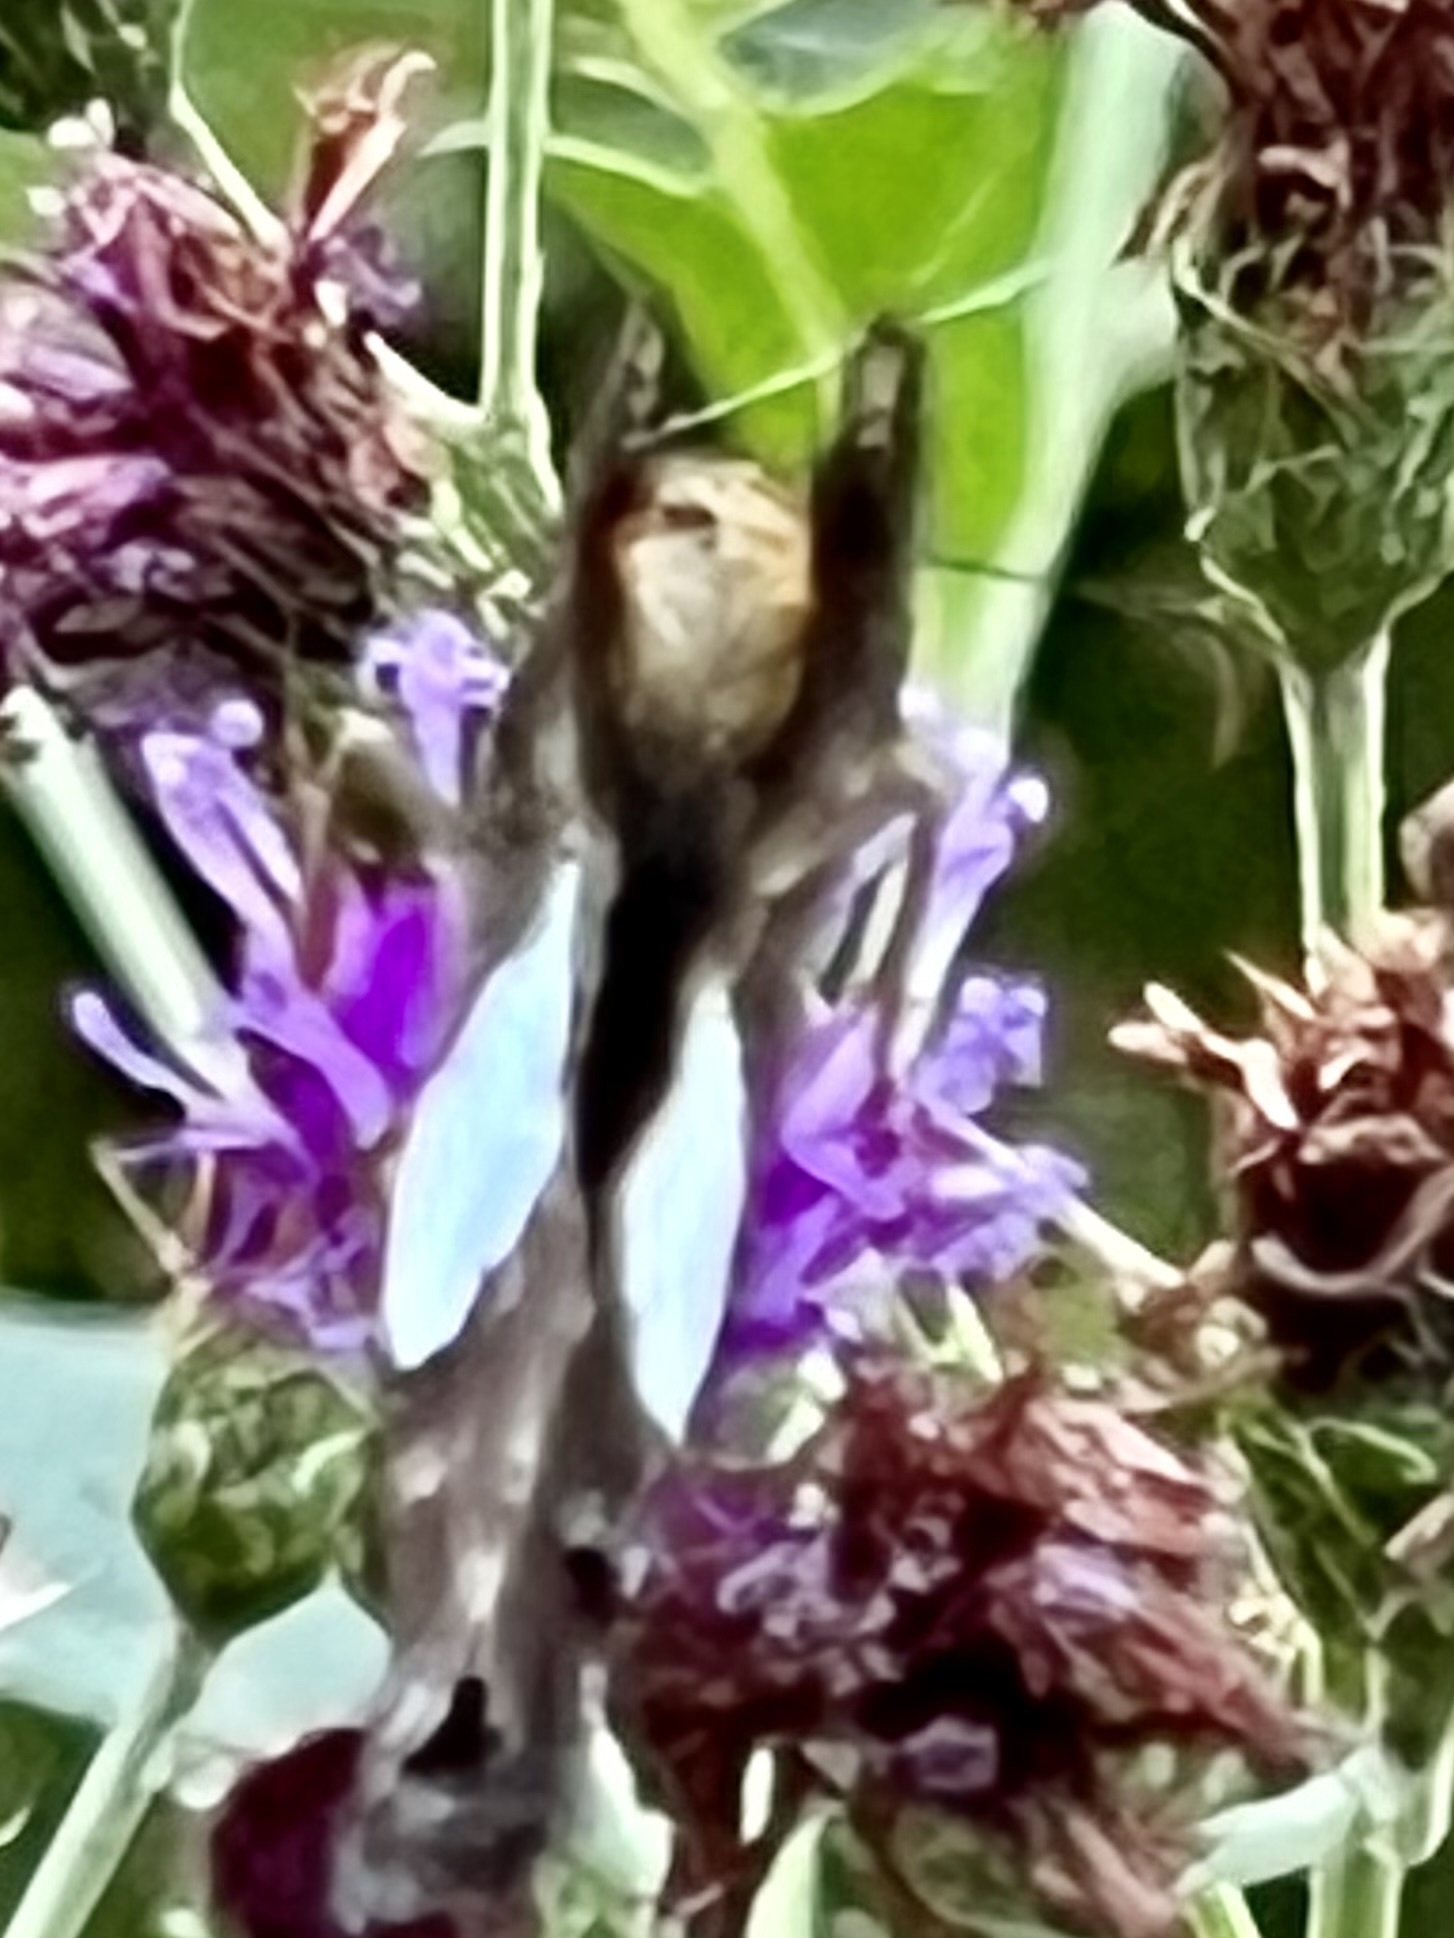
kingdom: Animalia
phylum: Arthropoda
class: Insecta
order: Lepidoptera
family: Hesperiidae
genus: Epargyreus
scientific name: Epargyreus clarus
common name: Silver-spotted skipper
